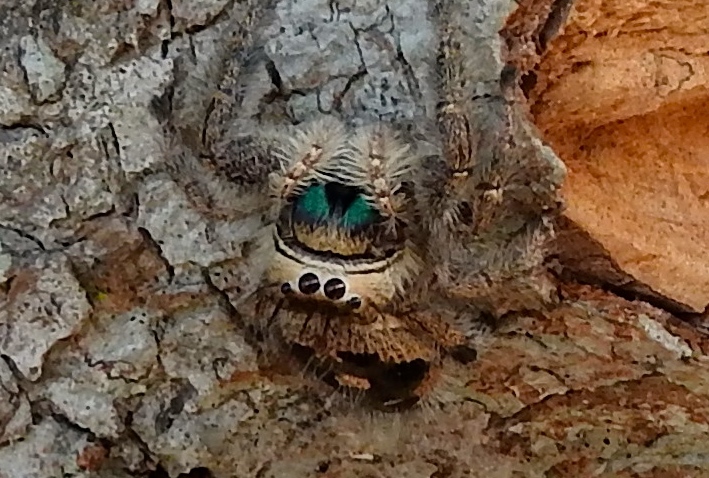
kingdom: Animalia
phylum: Arthropoda
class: Arachnida
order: Araneae
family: Salticidae
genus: Phidippus
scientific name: Phidippus
